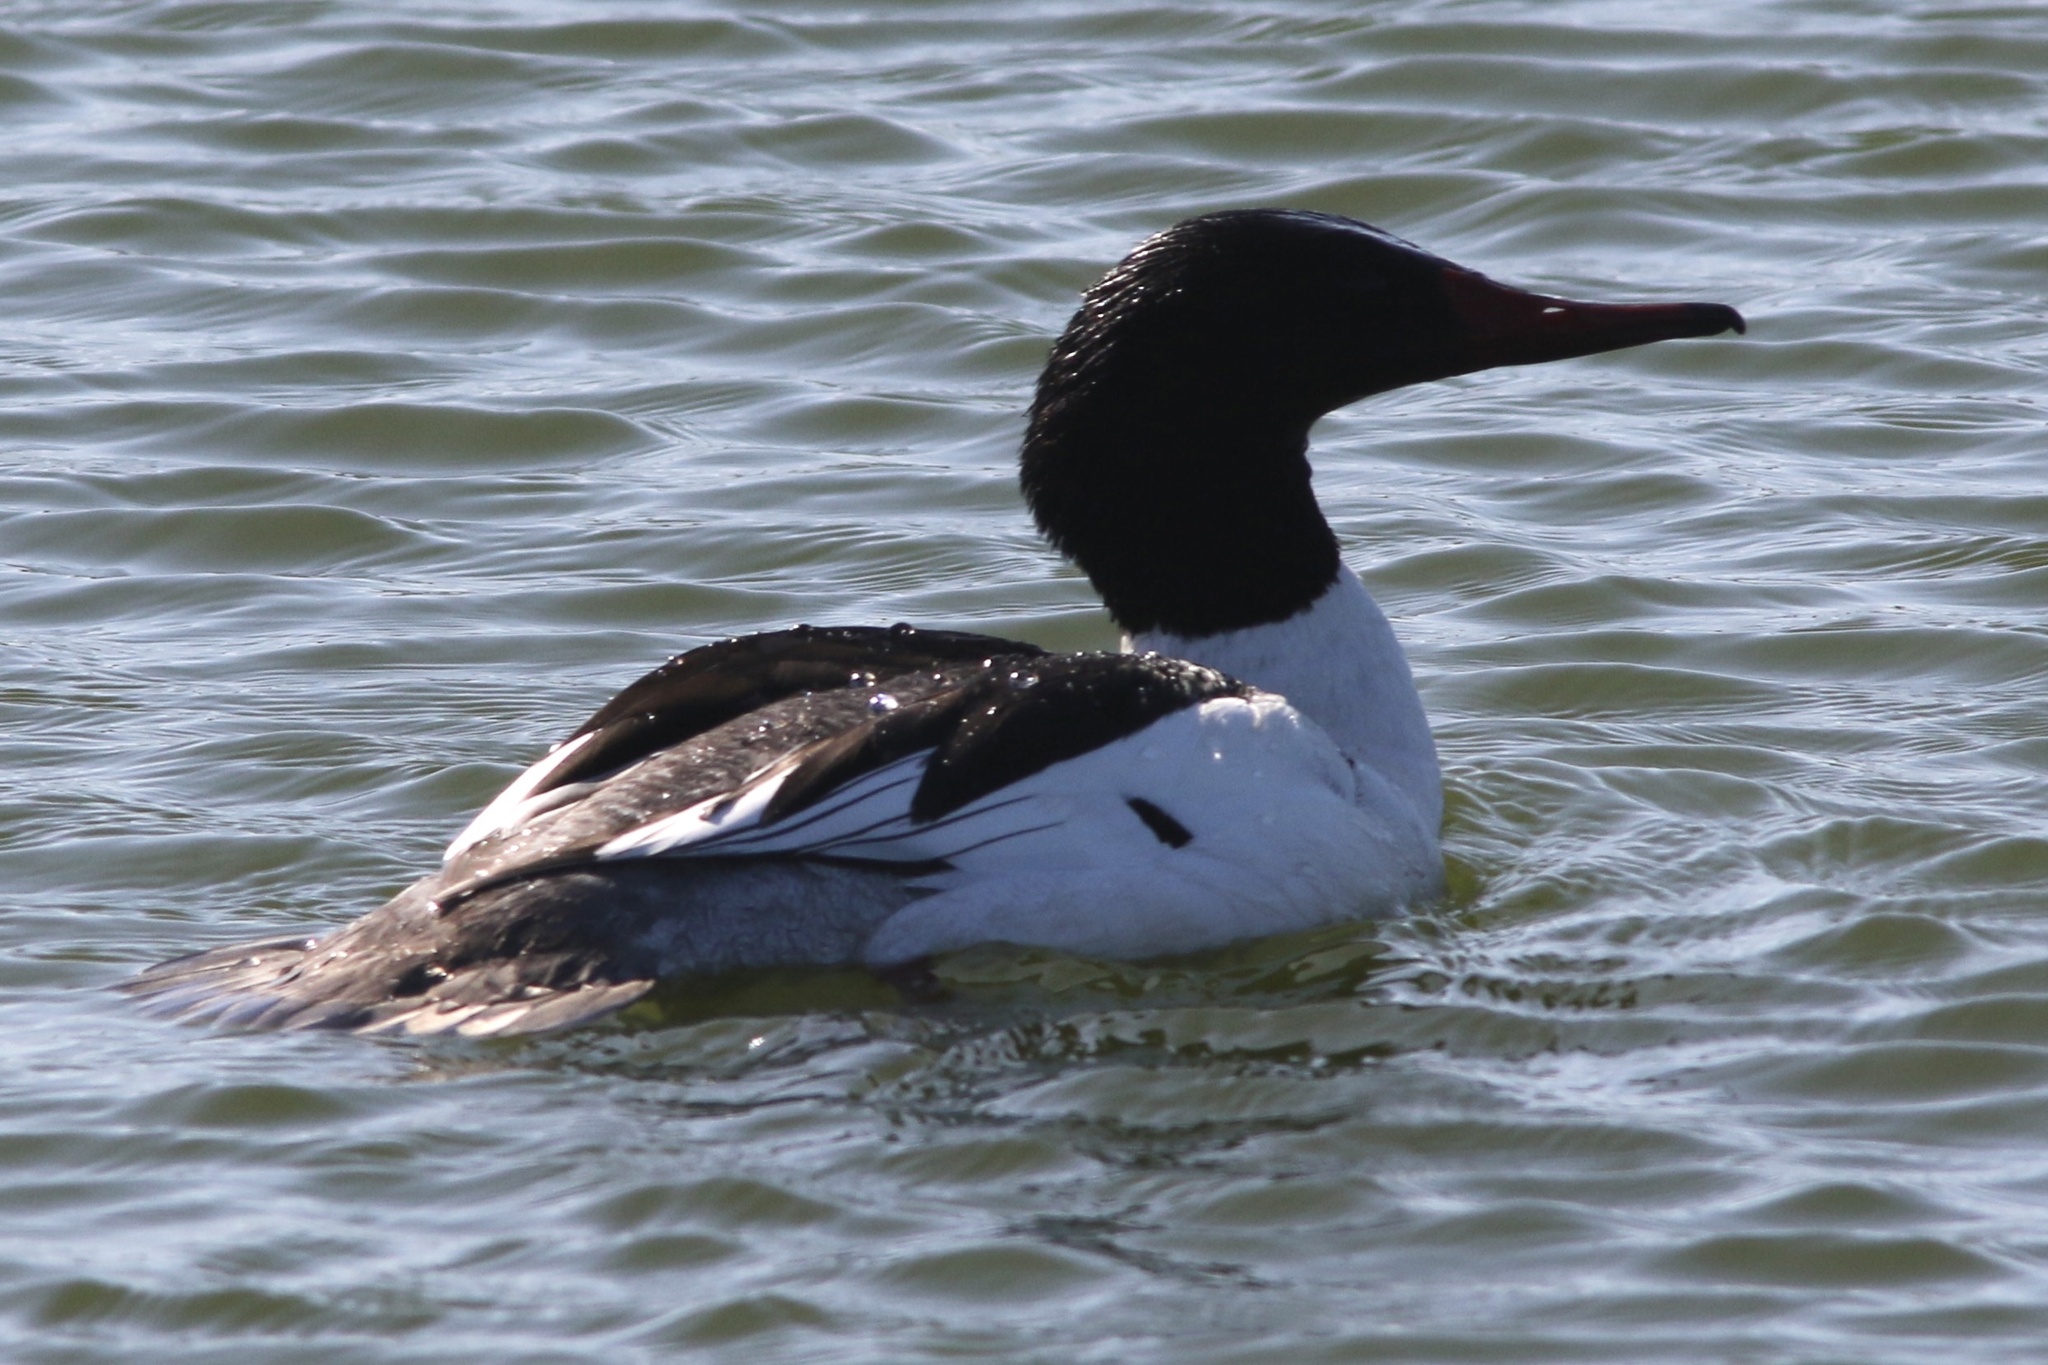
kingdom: Animalia
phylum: Chordata
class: Aves
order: Anseriformes
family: Anatidae
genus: Mergus
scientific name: Mergus merganser
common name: Common merganser
